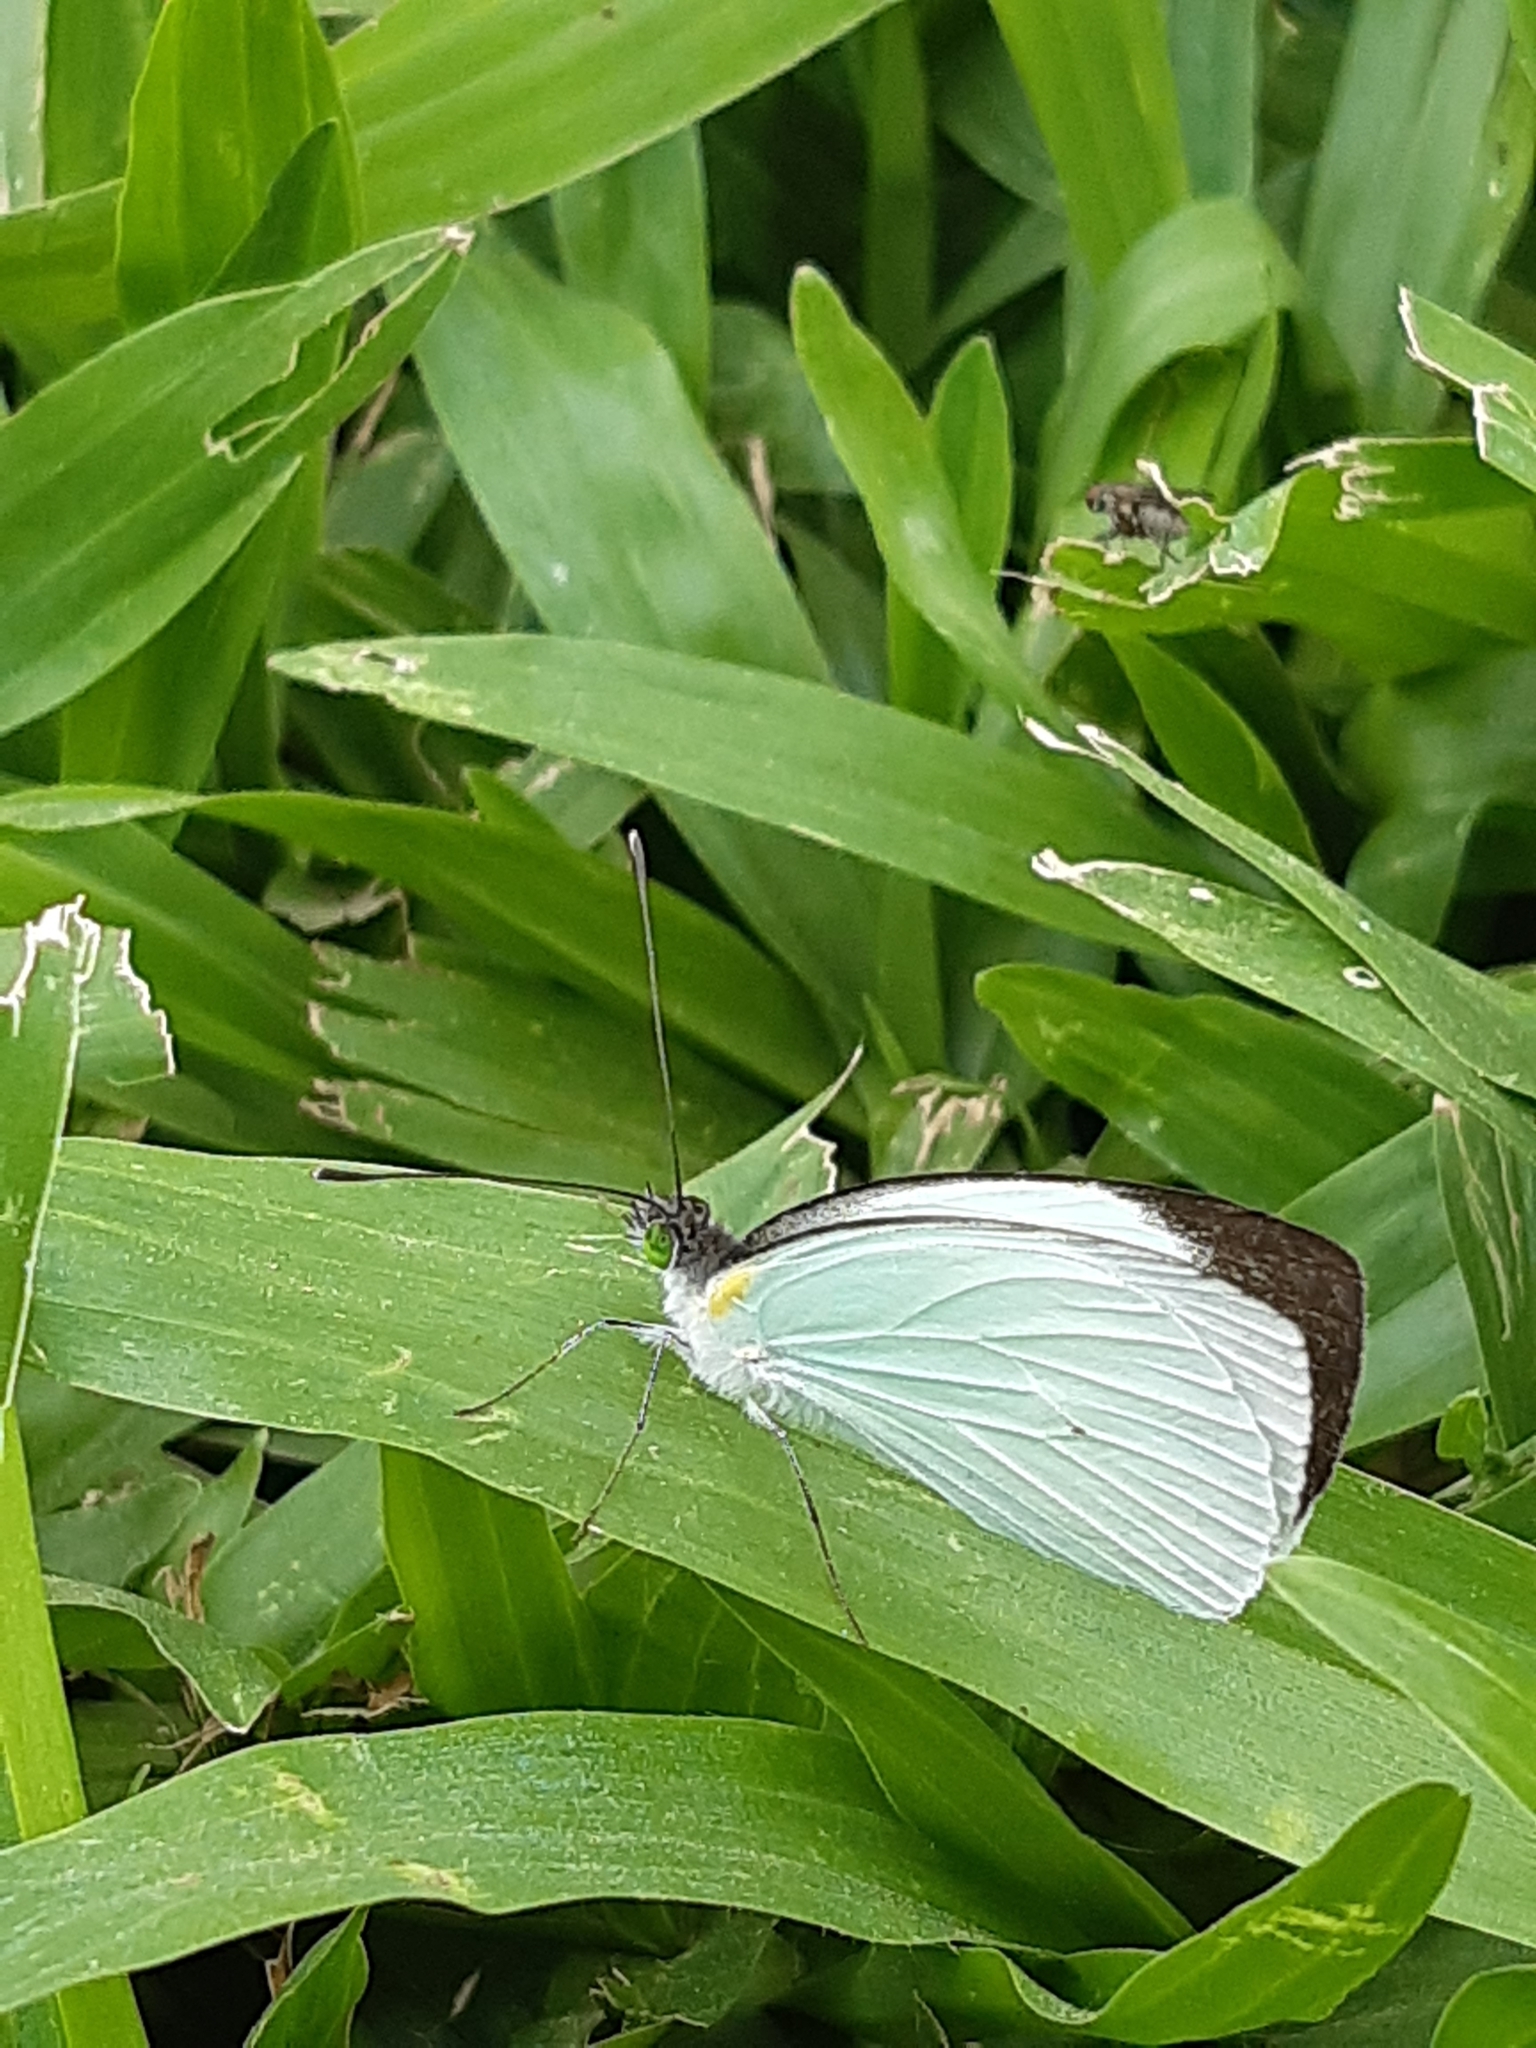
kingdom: Animalia
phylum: Arthropoda
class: Insecta
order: Lepidoptera
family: Pieridae
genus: Leptophobia
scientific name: Leptophobia aripa
